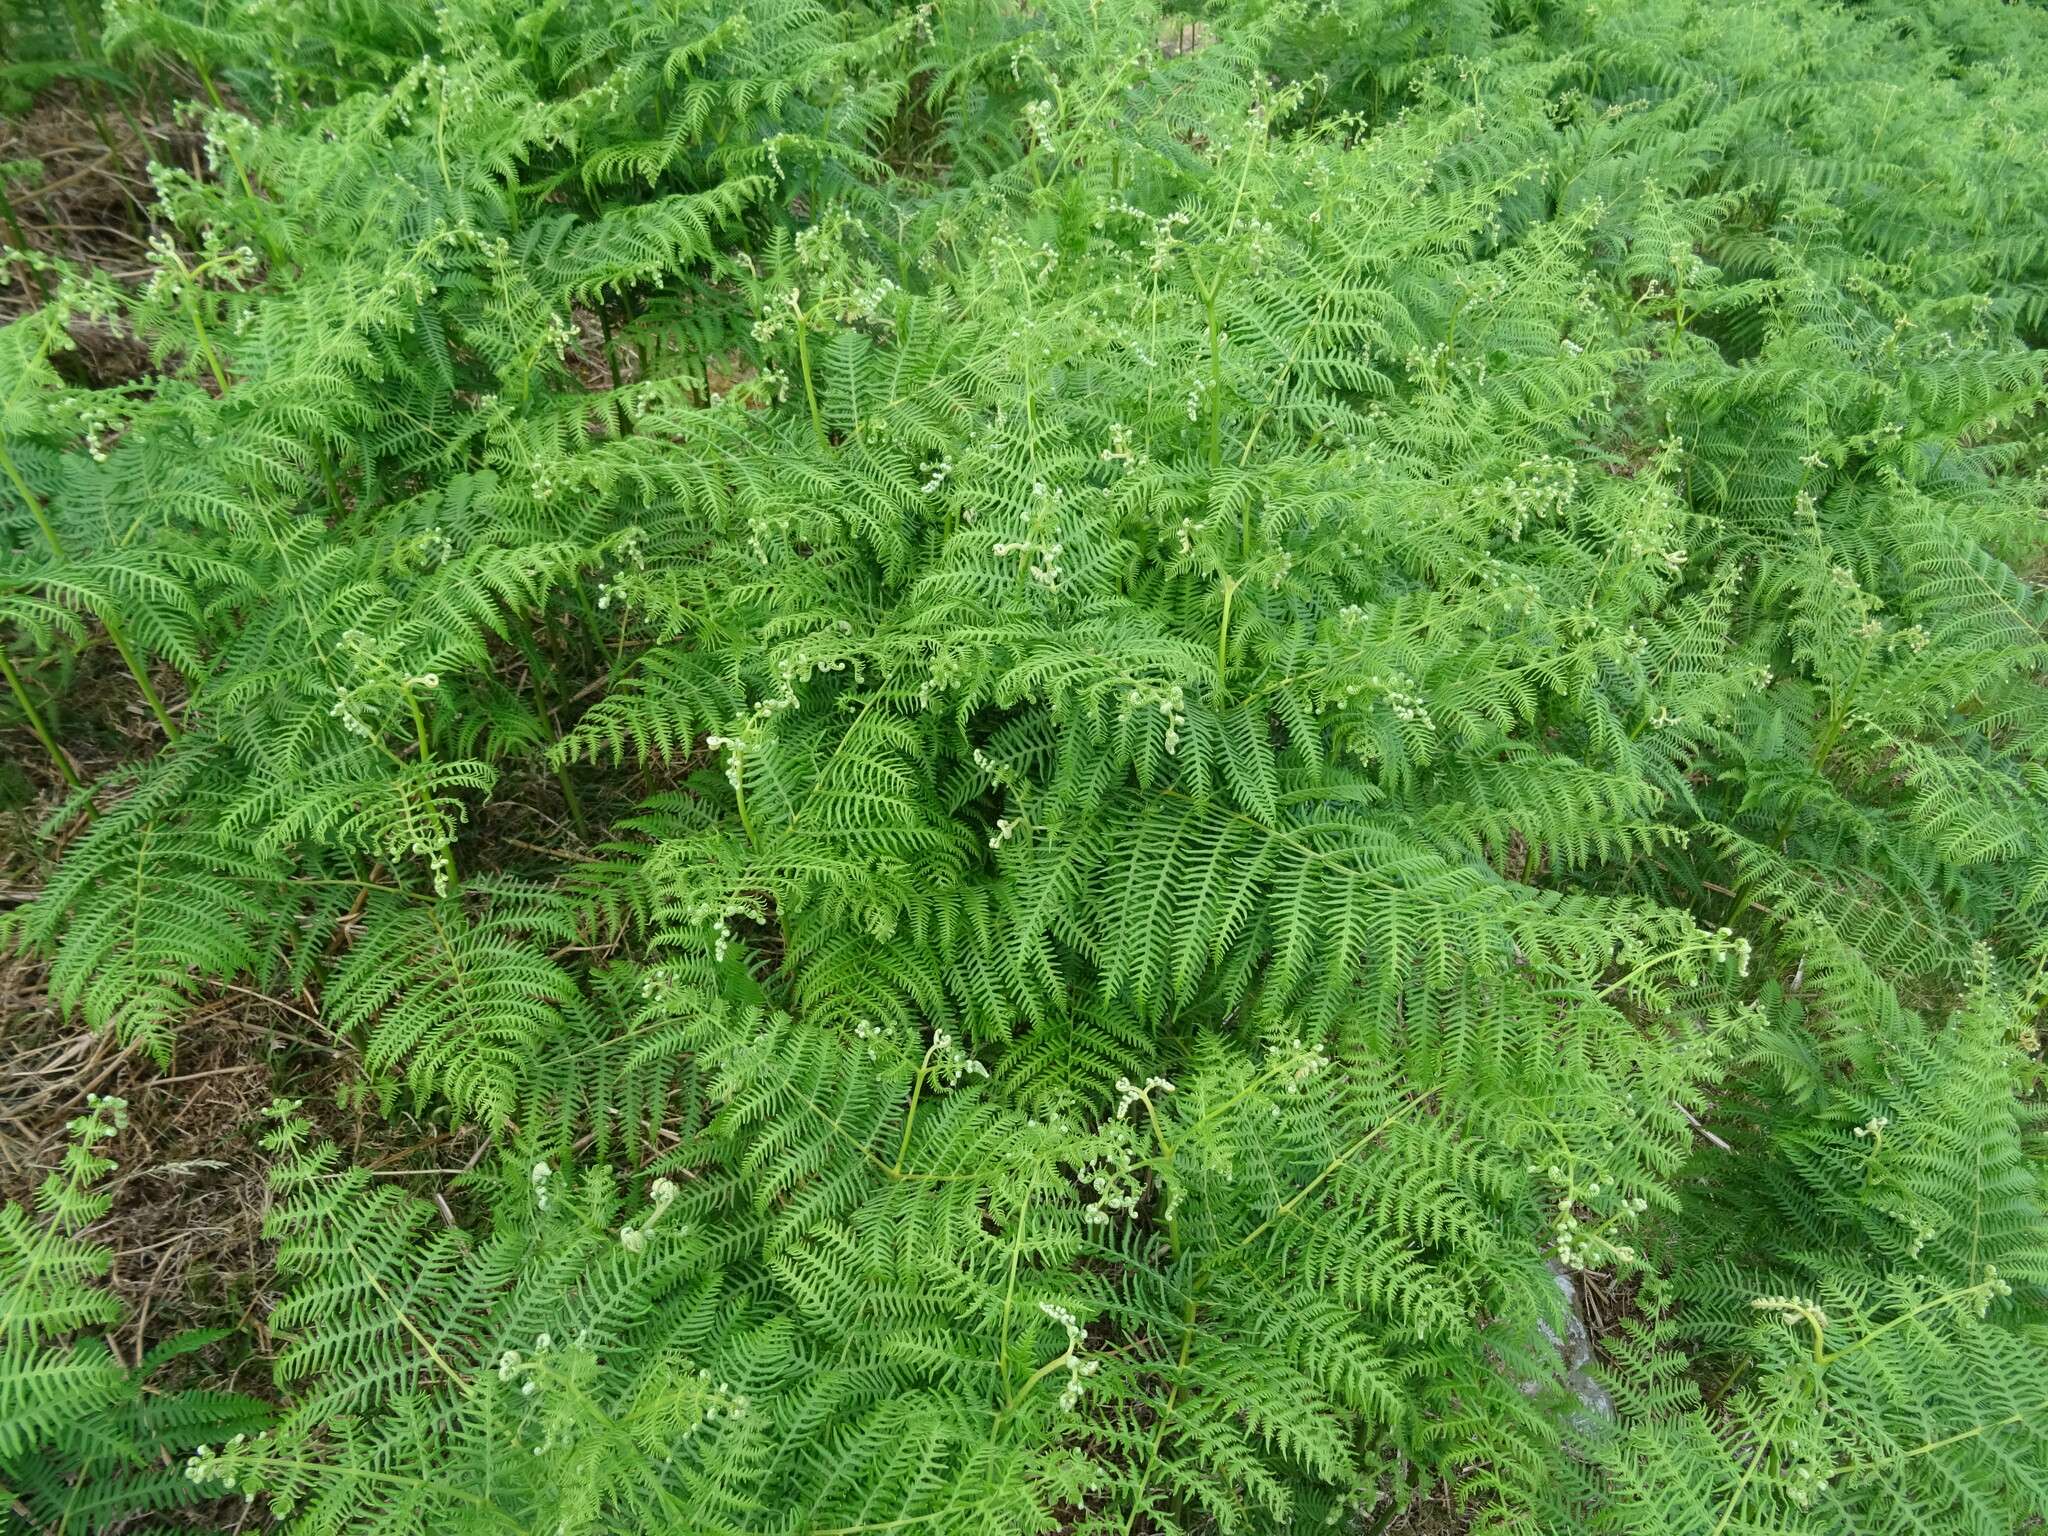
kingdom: Plantae
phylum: Tracheophyta
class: Polypodiopsida
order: Polypodiales
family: Dennstaedtiaceae
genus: Pteridium
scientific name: Pteridium aquilinum
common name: Bracken
